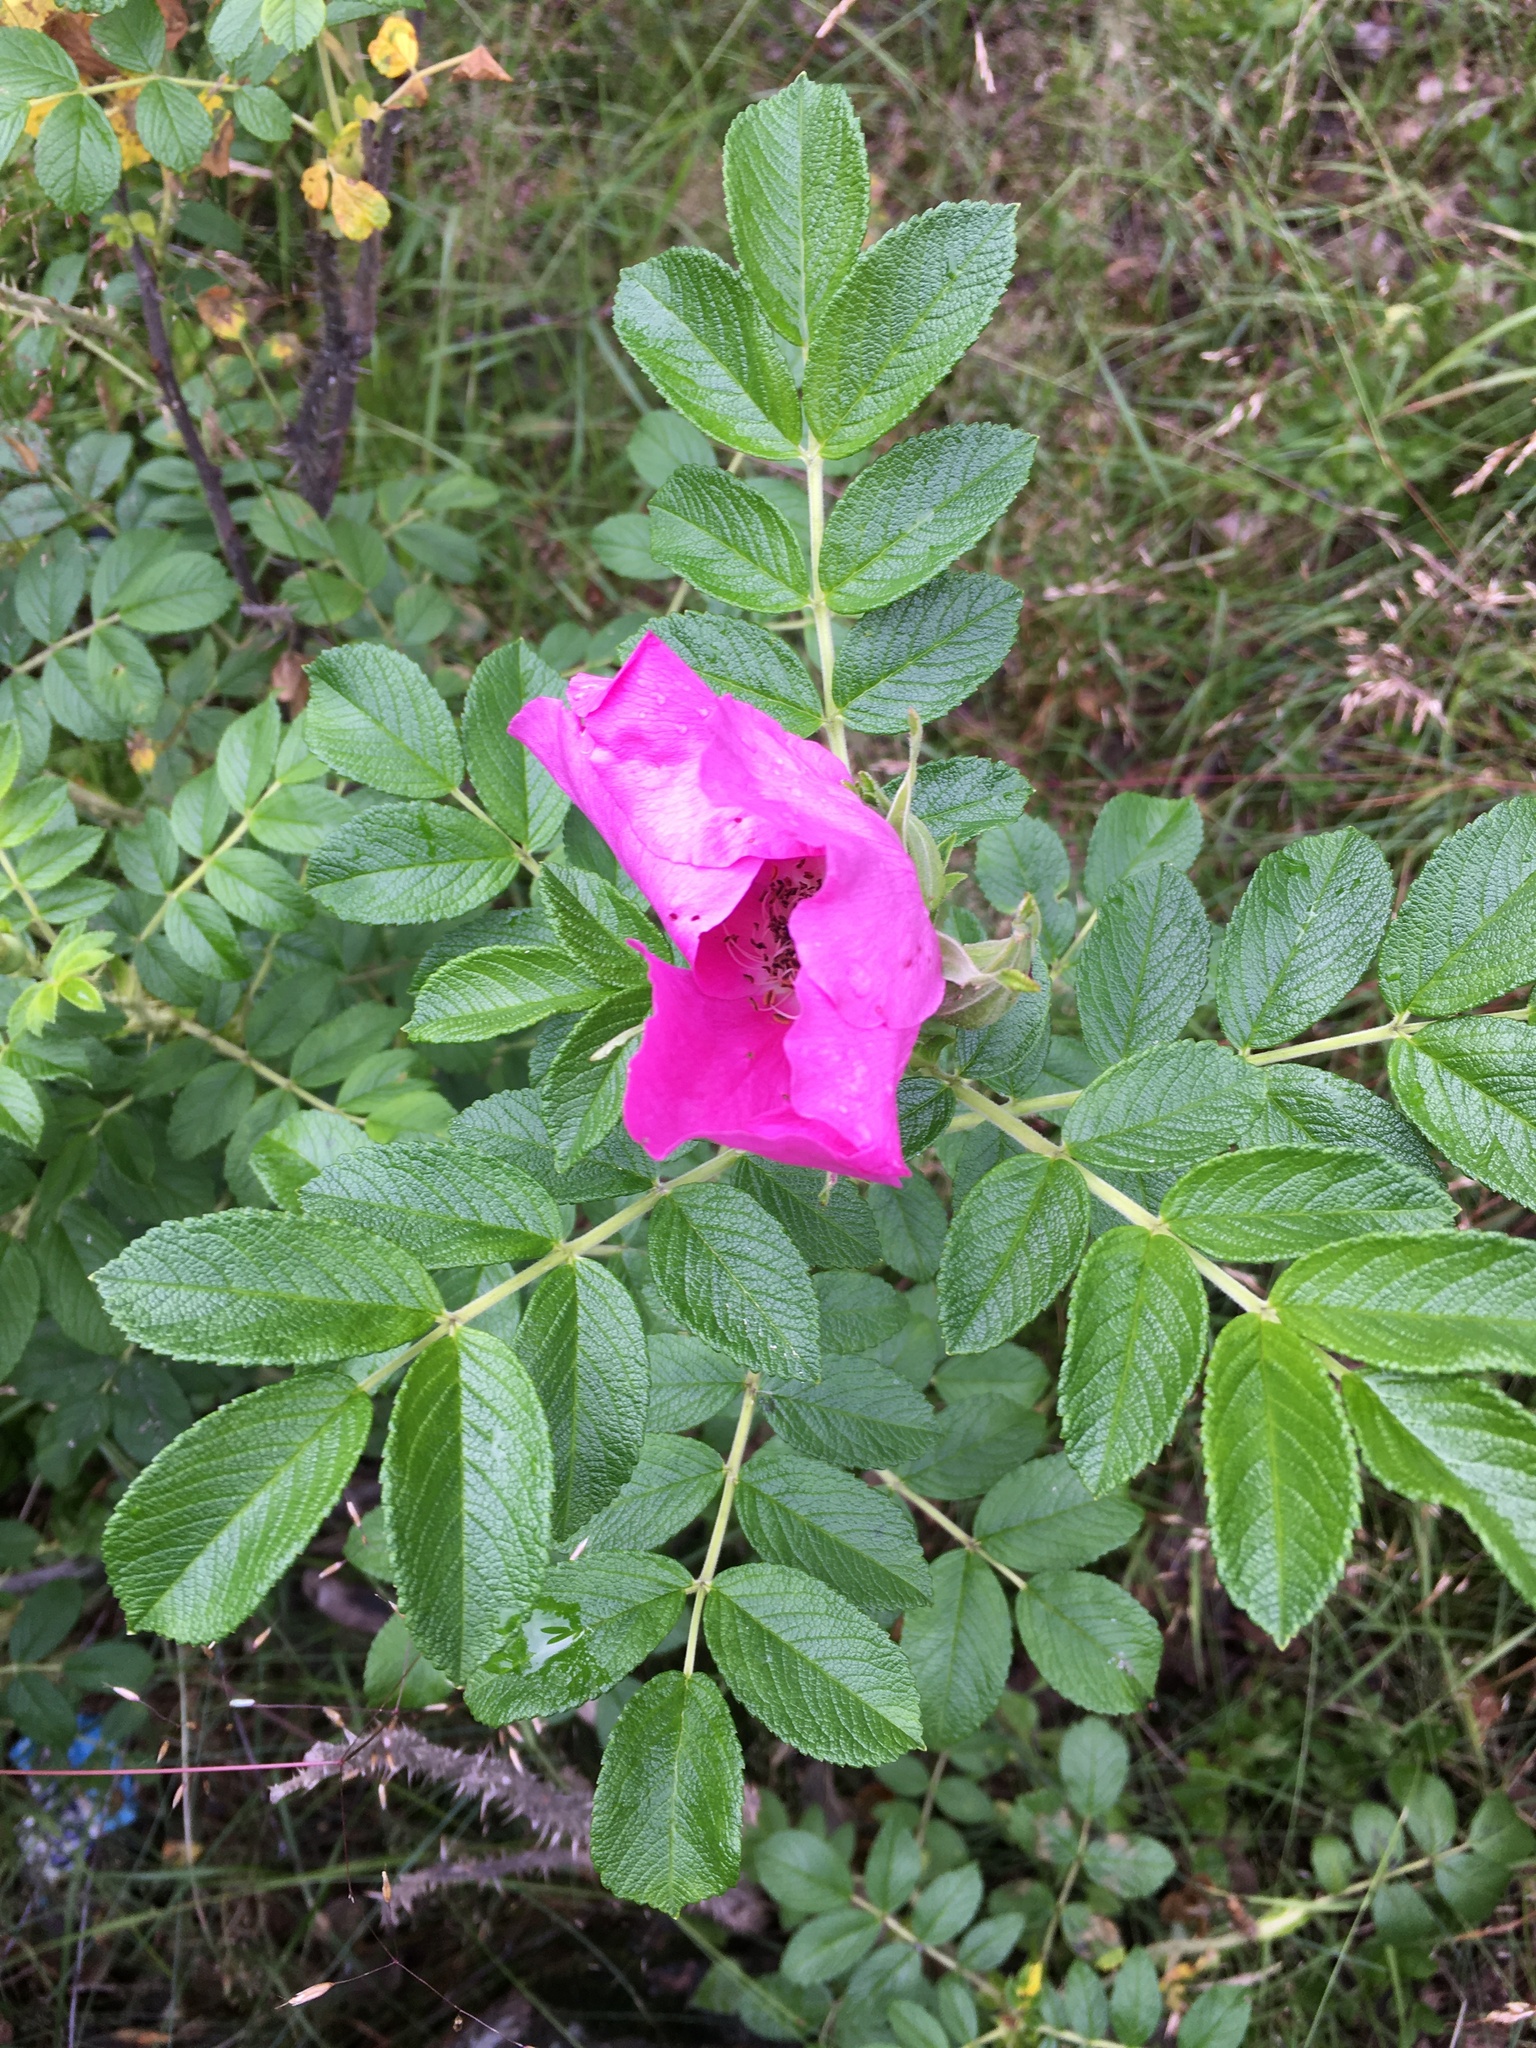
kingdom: Plantae
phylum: Tracheophyta
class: Magnoliopsida
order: Rosales
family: Rosaceae
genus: Rosa
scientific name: Rosa rugosa
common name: Japanese rose
